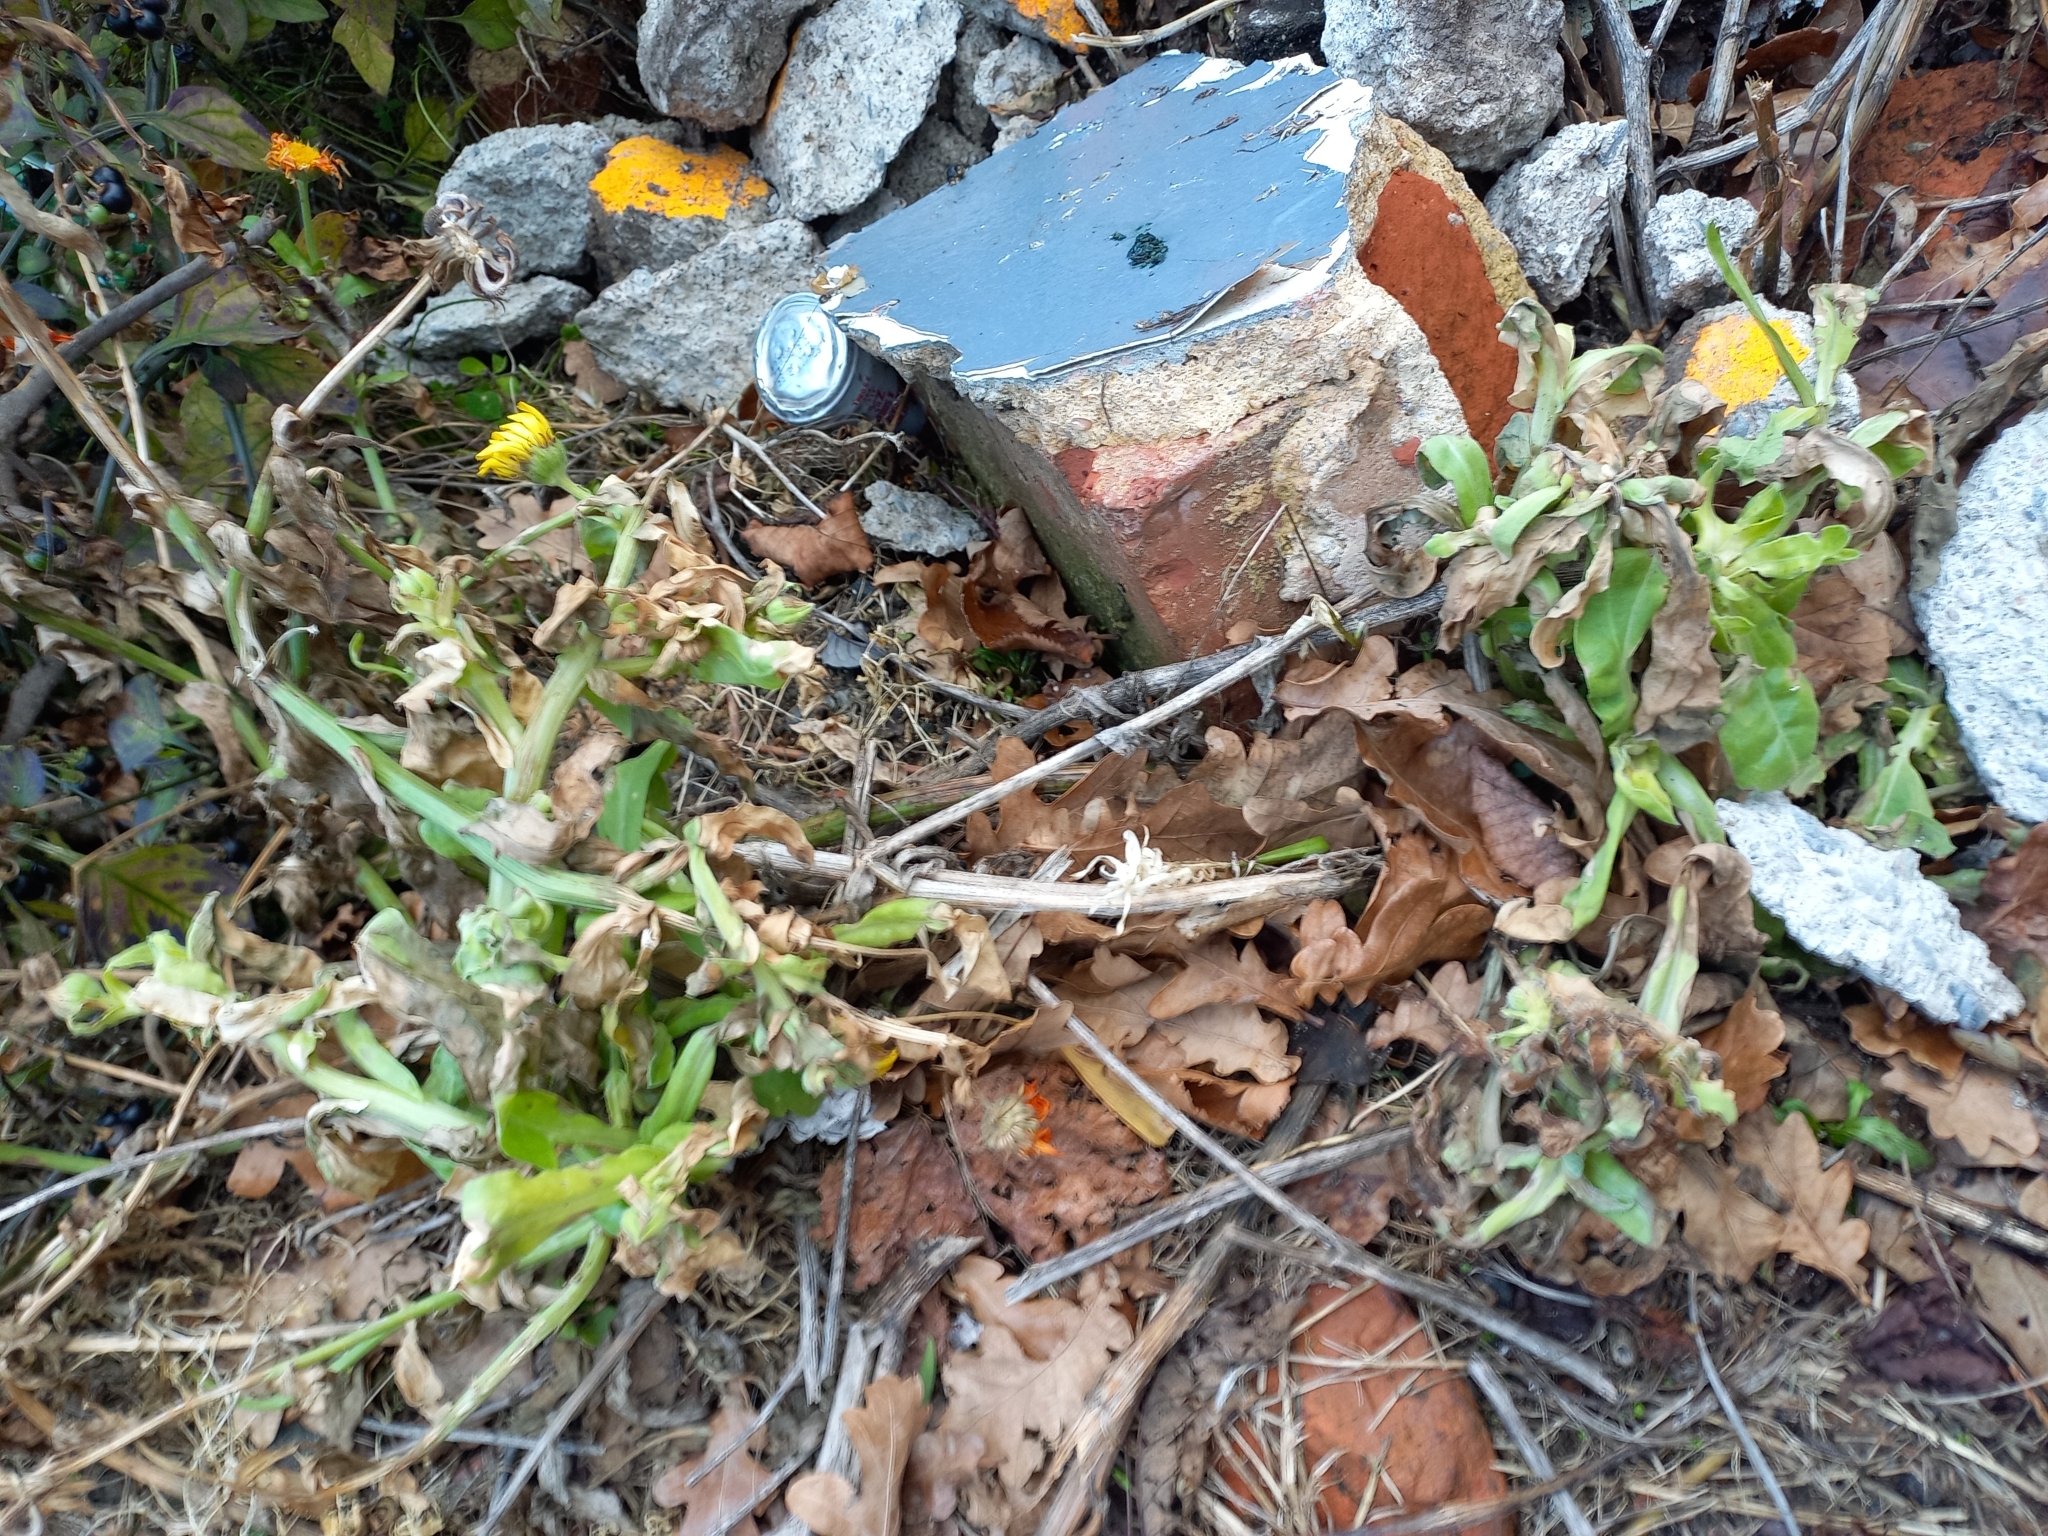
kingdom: Plantae
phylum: Tracheophyta
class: Magnoliopsida
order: Asterales
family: Asteraceae
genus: Calendula
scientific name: Calendula officinalis
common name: Pot marigold
